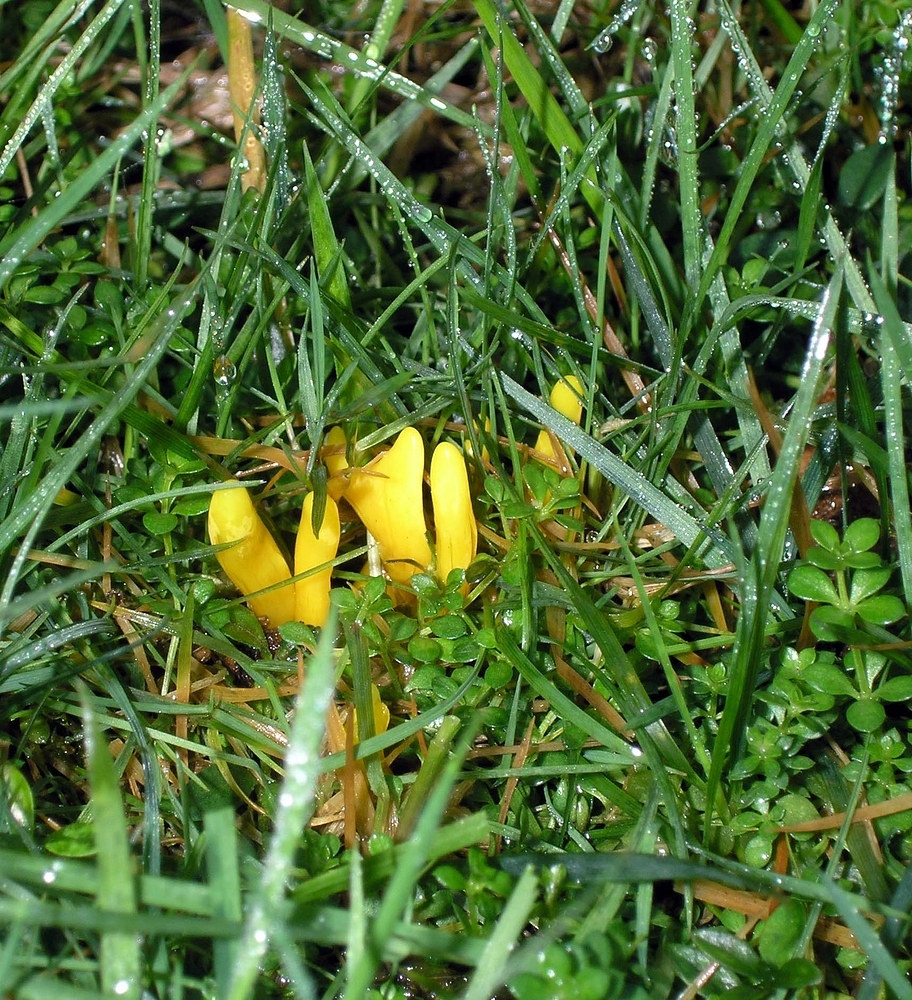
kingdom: Fungi
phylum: Basidiomycota
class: Agaricomycetes
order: Agaricales
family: Clavariaceae
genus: Clavulinopsis
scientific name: Clavulinopsis helvola
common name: Yellow club
